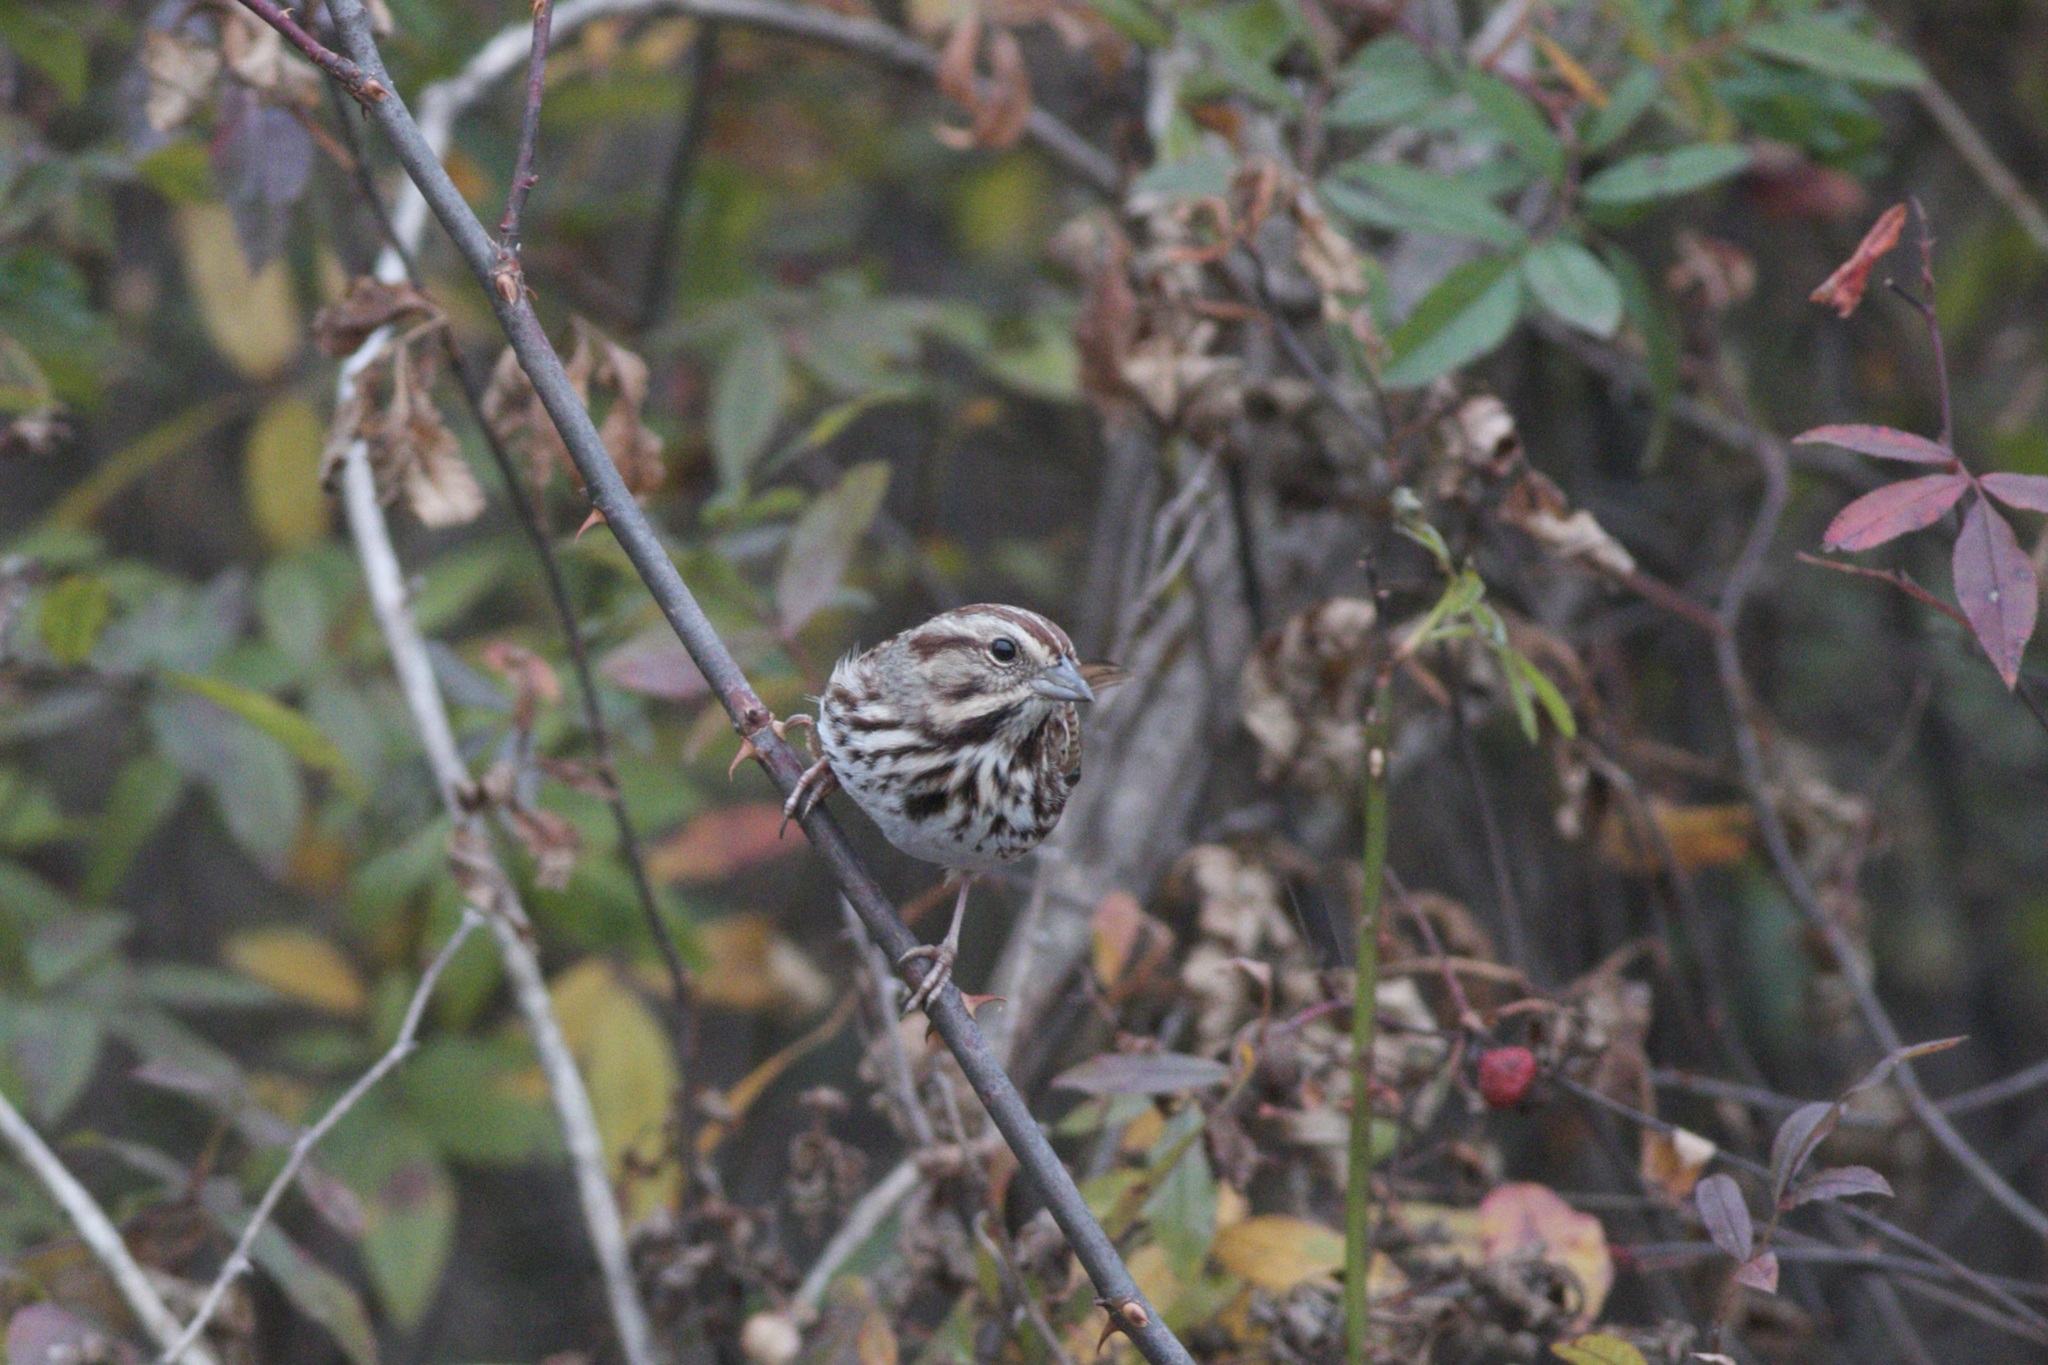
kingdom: Animalia
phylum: Chordata
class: Aves
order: Passeriformes
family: Passerellidae
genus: Melospiza
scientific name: Melospiza melodia
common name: Song sparrow
